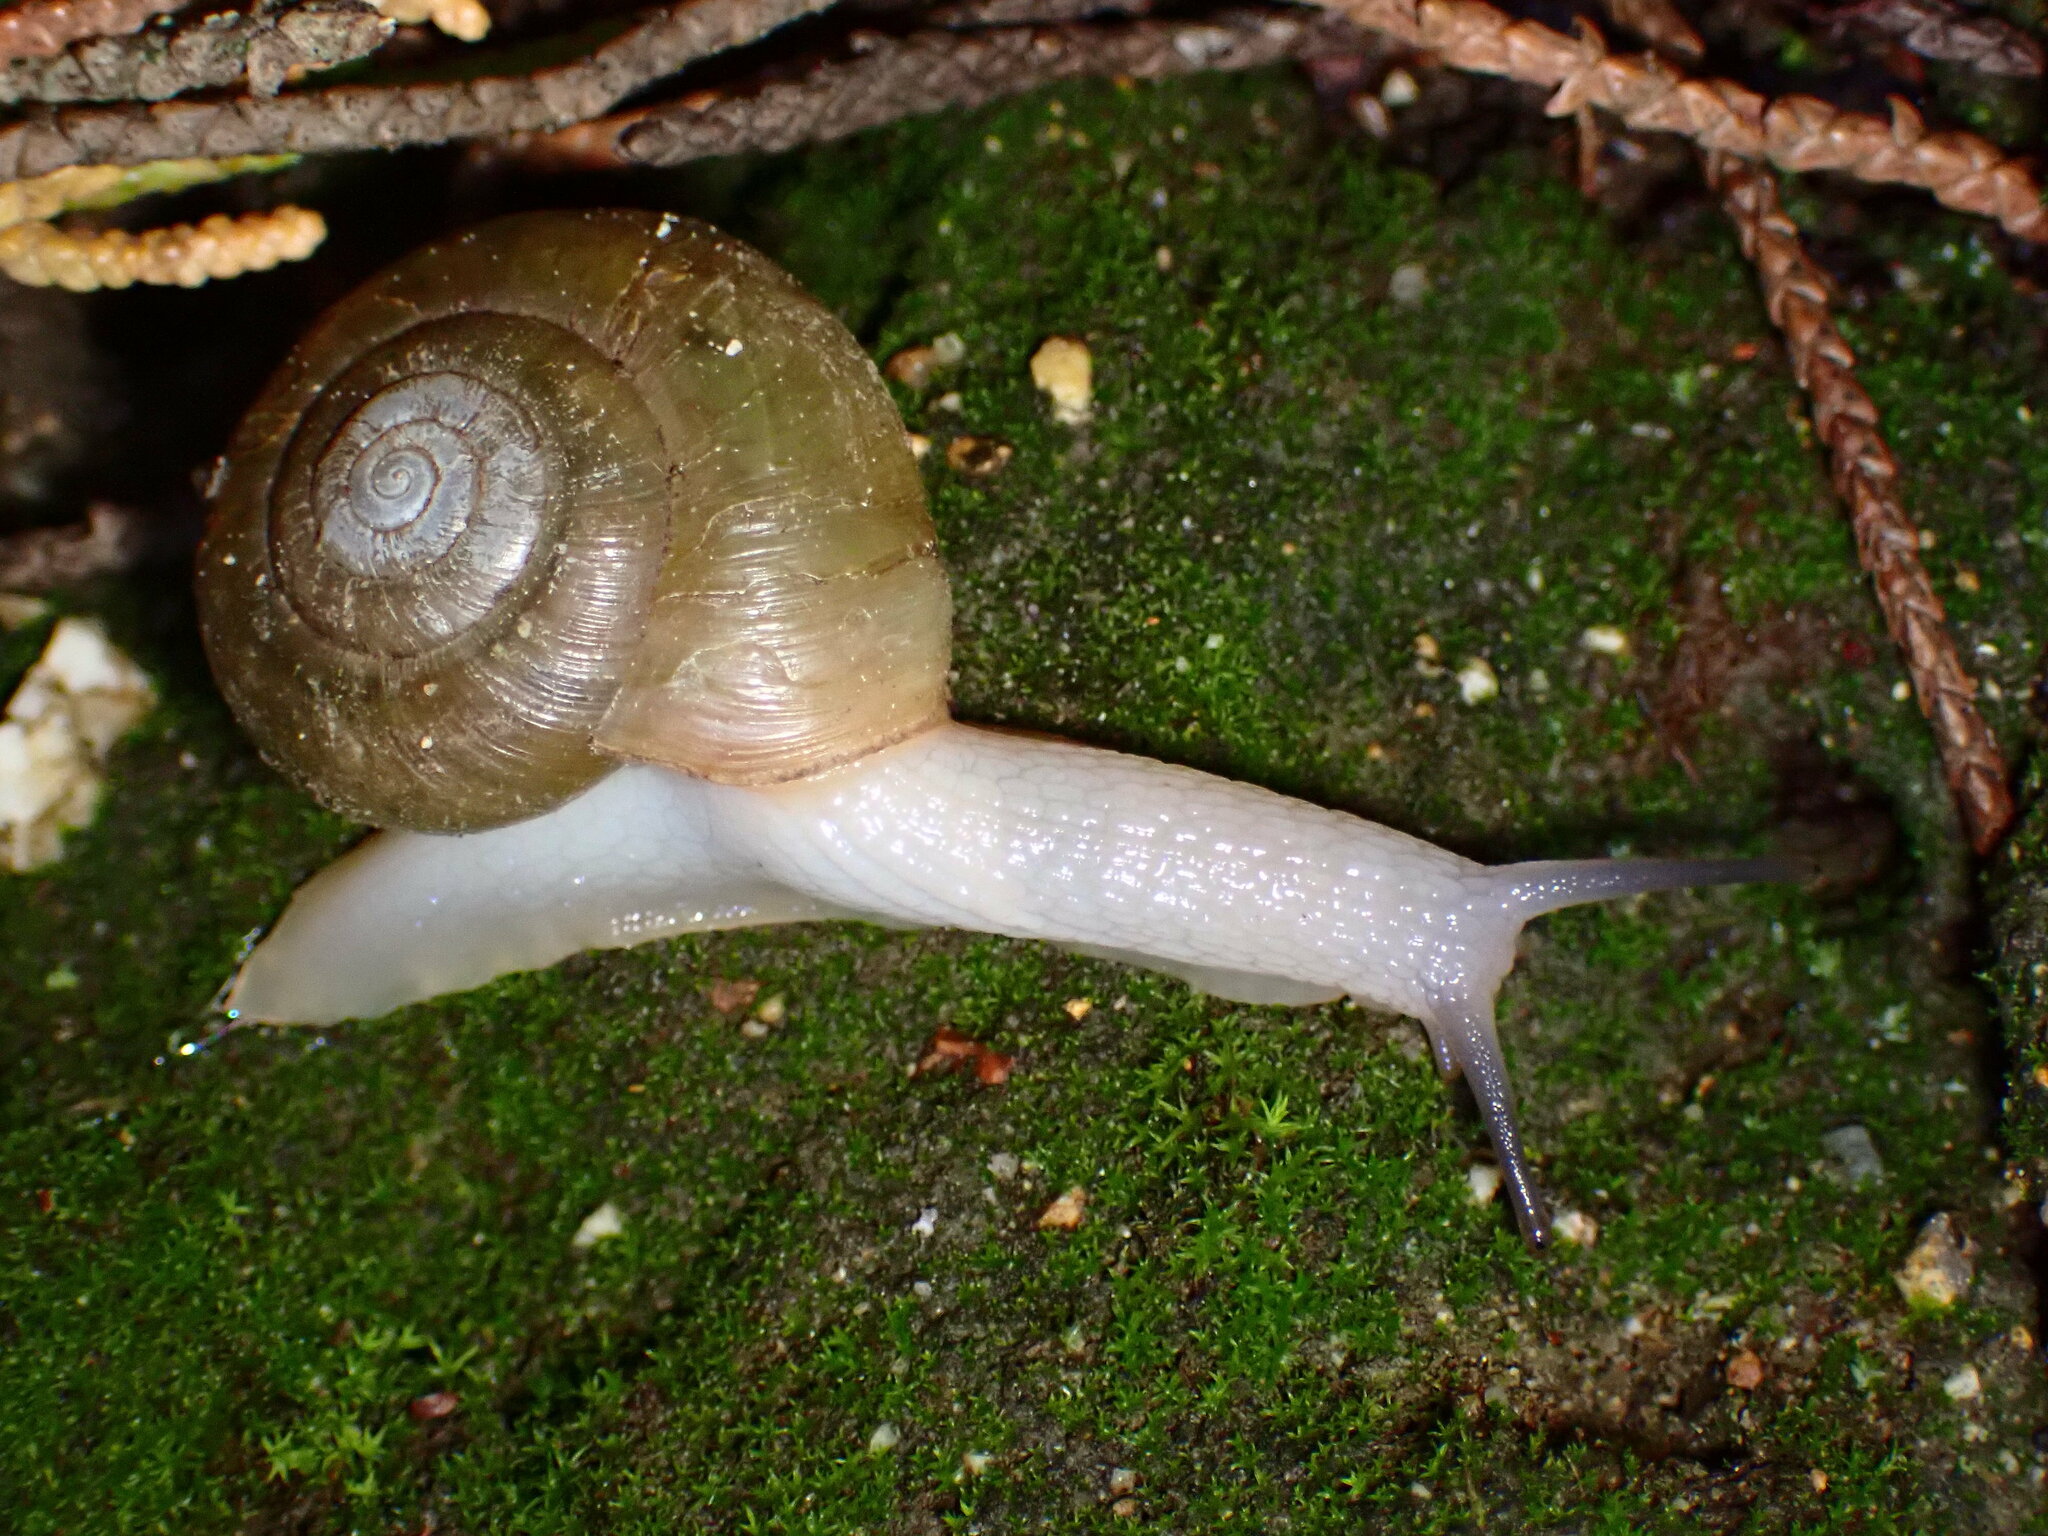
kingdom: Animalia
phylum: Mollusca
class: Gastropoda
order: Stylommatophora
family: Haplotrematidae
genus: Haplotrema
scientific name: Haplotrema minimum
